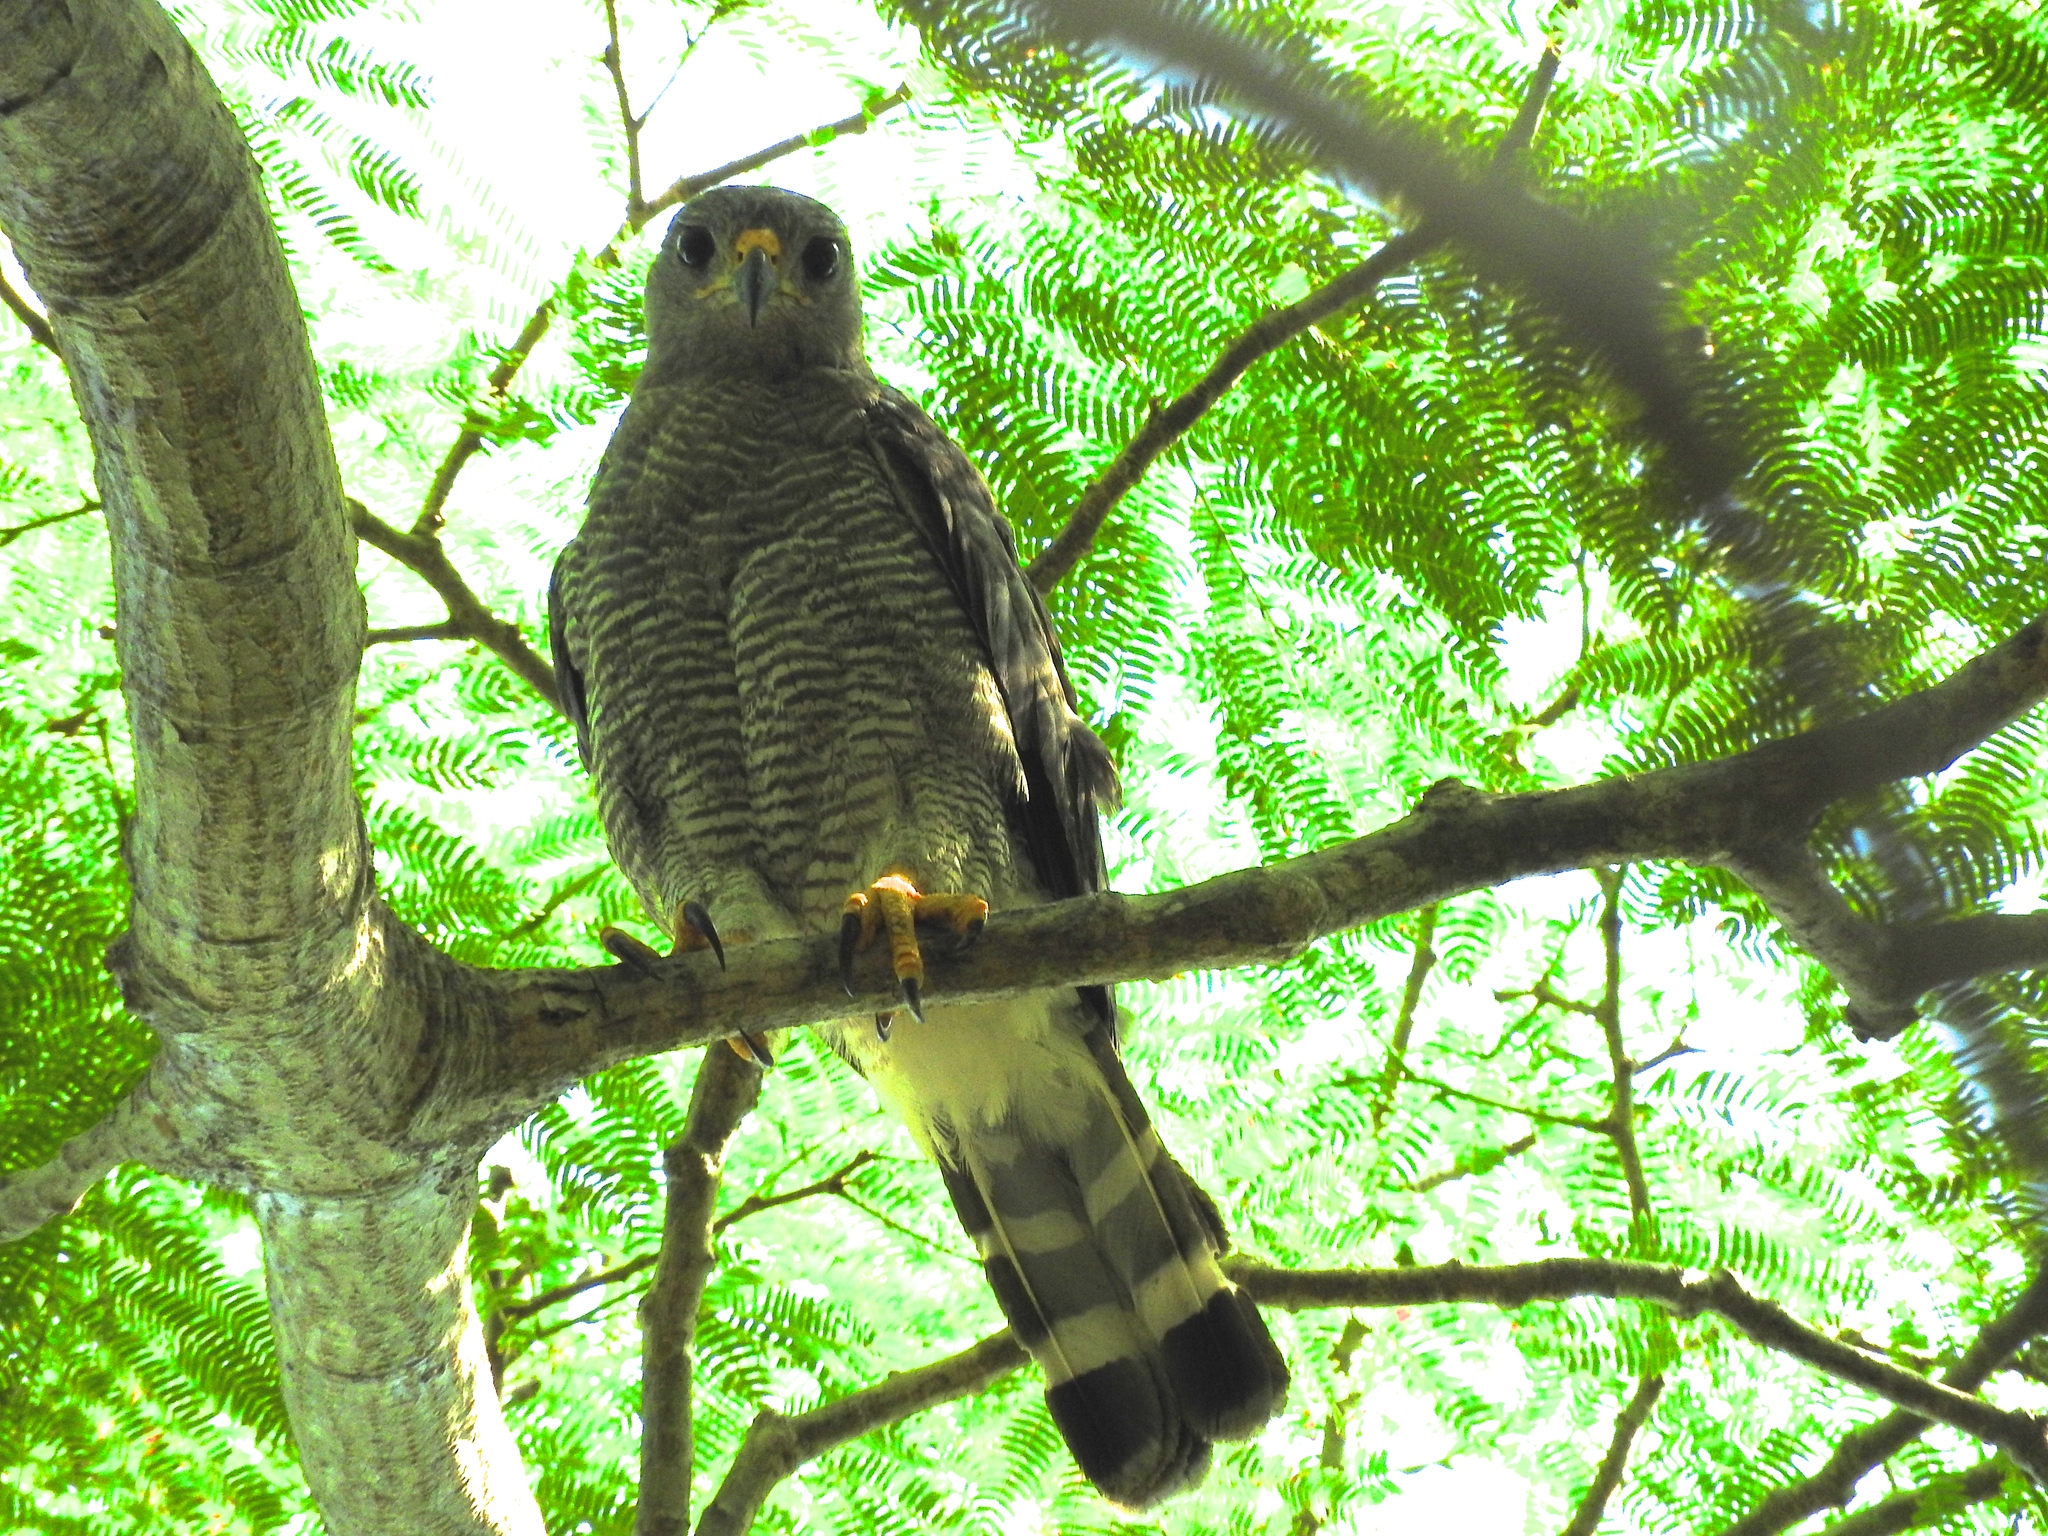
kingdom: Animalia
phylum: Chordata
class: Aves
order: Accipitriformes
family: Accipitridae
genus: Buteo
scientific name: Buteo nitidus
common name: Grey-lined hawk
